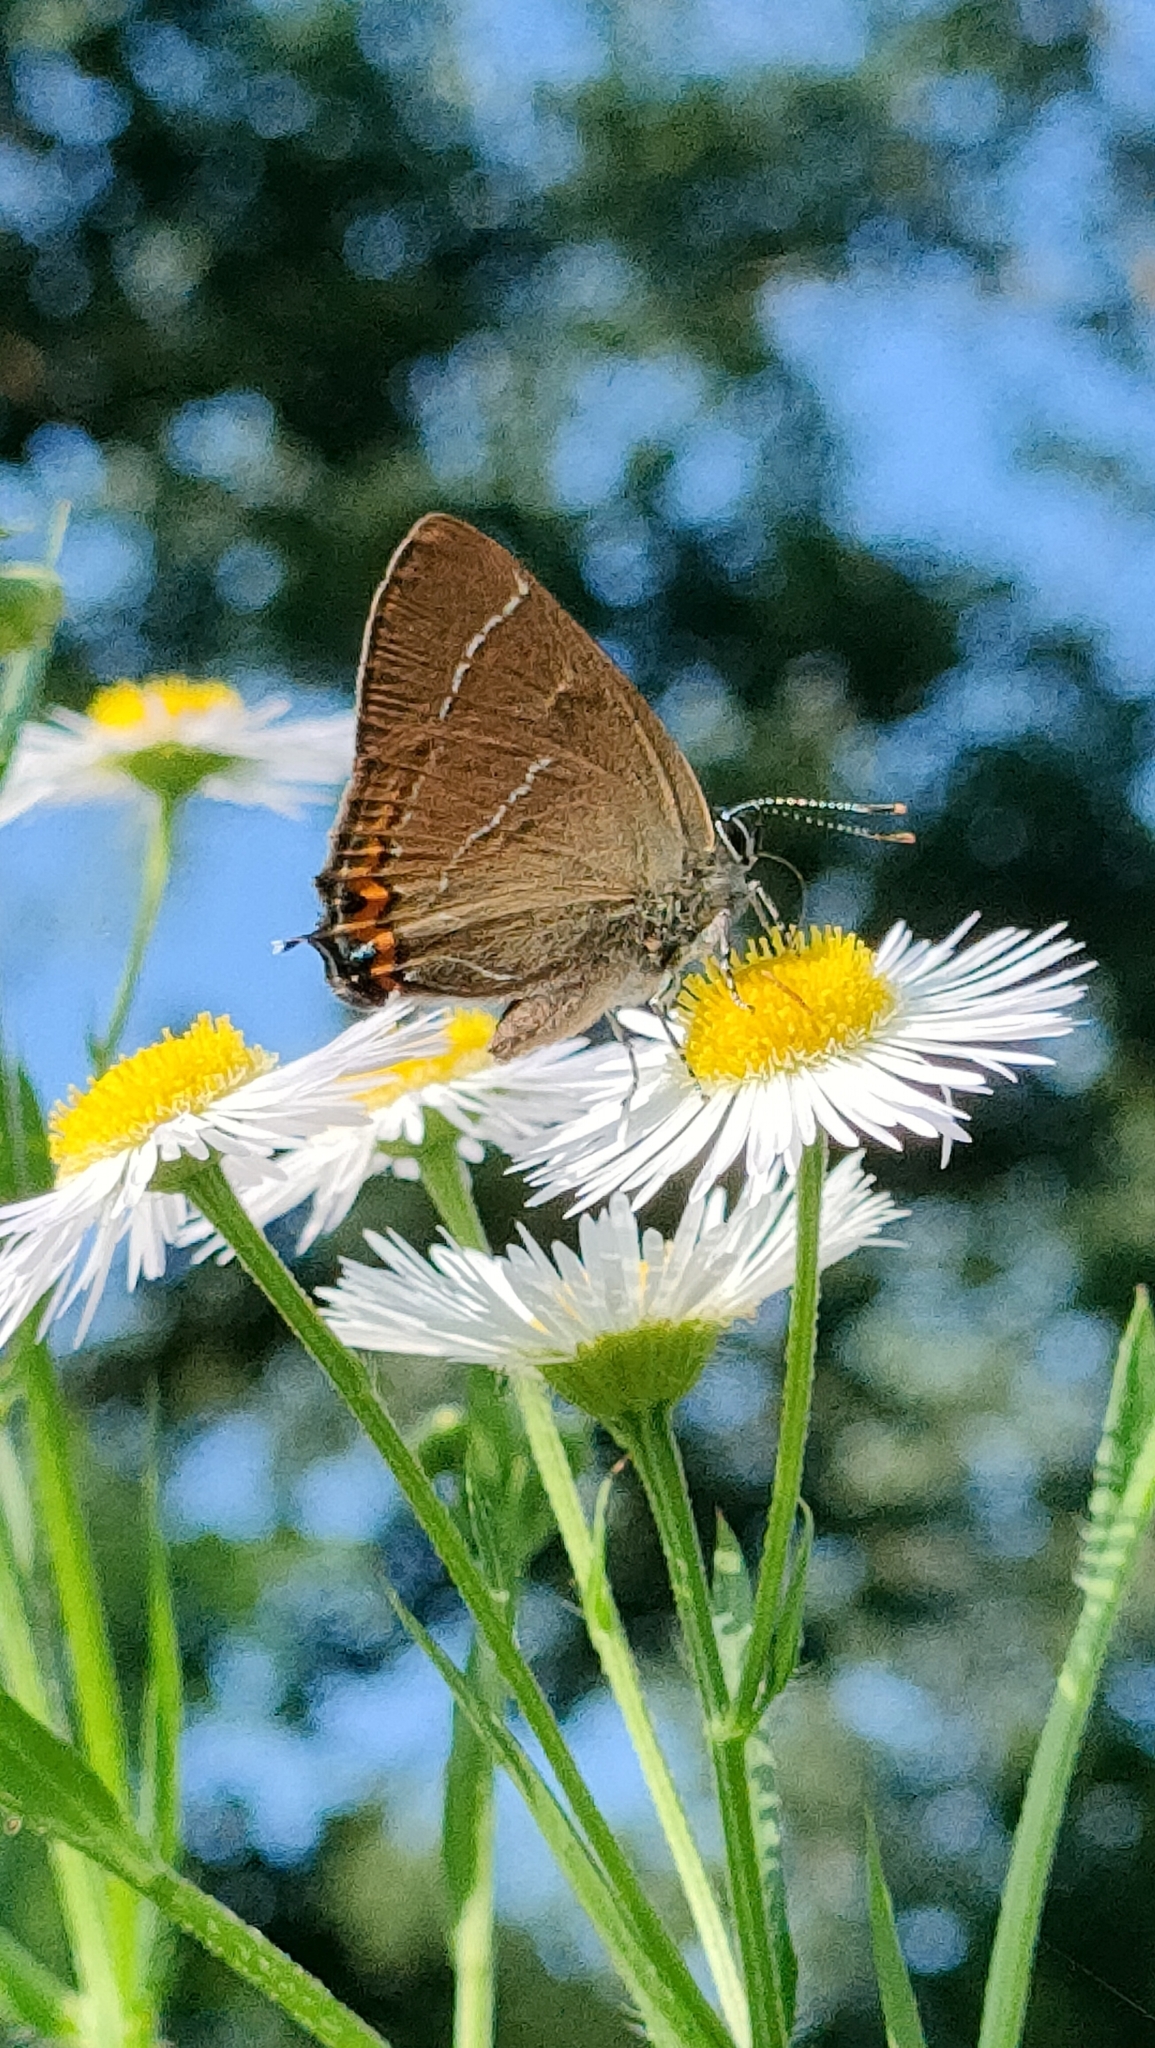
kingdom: Animalia
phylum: Arthropoda
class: Insecta
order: Lepidoptera
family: Lycaenidae
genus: Satyrium
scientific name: Satyrium w-album
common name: White-letter hairstreak
